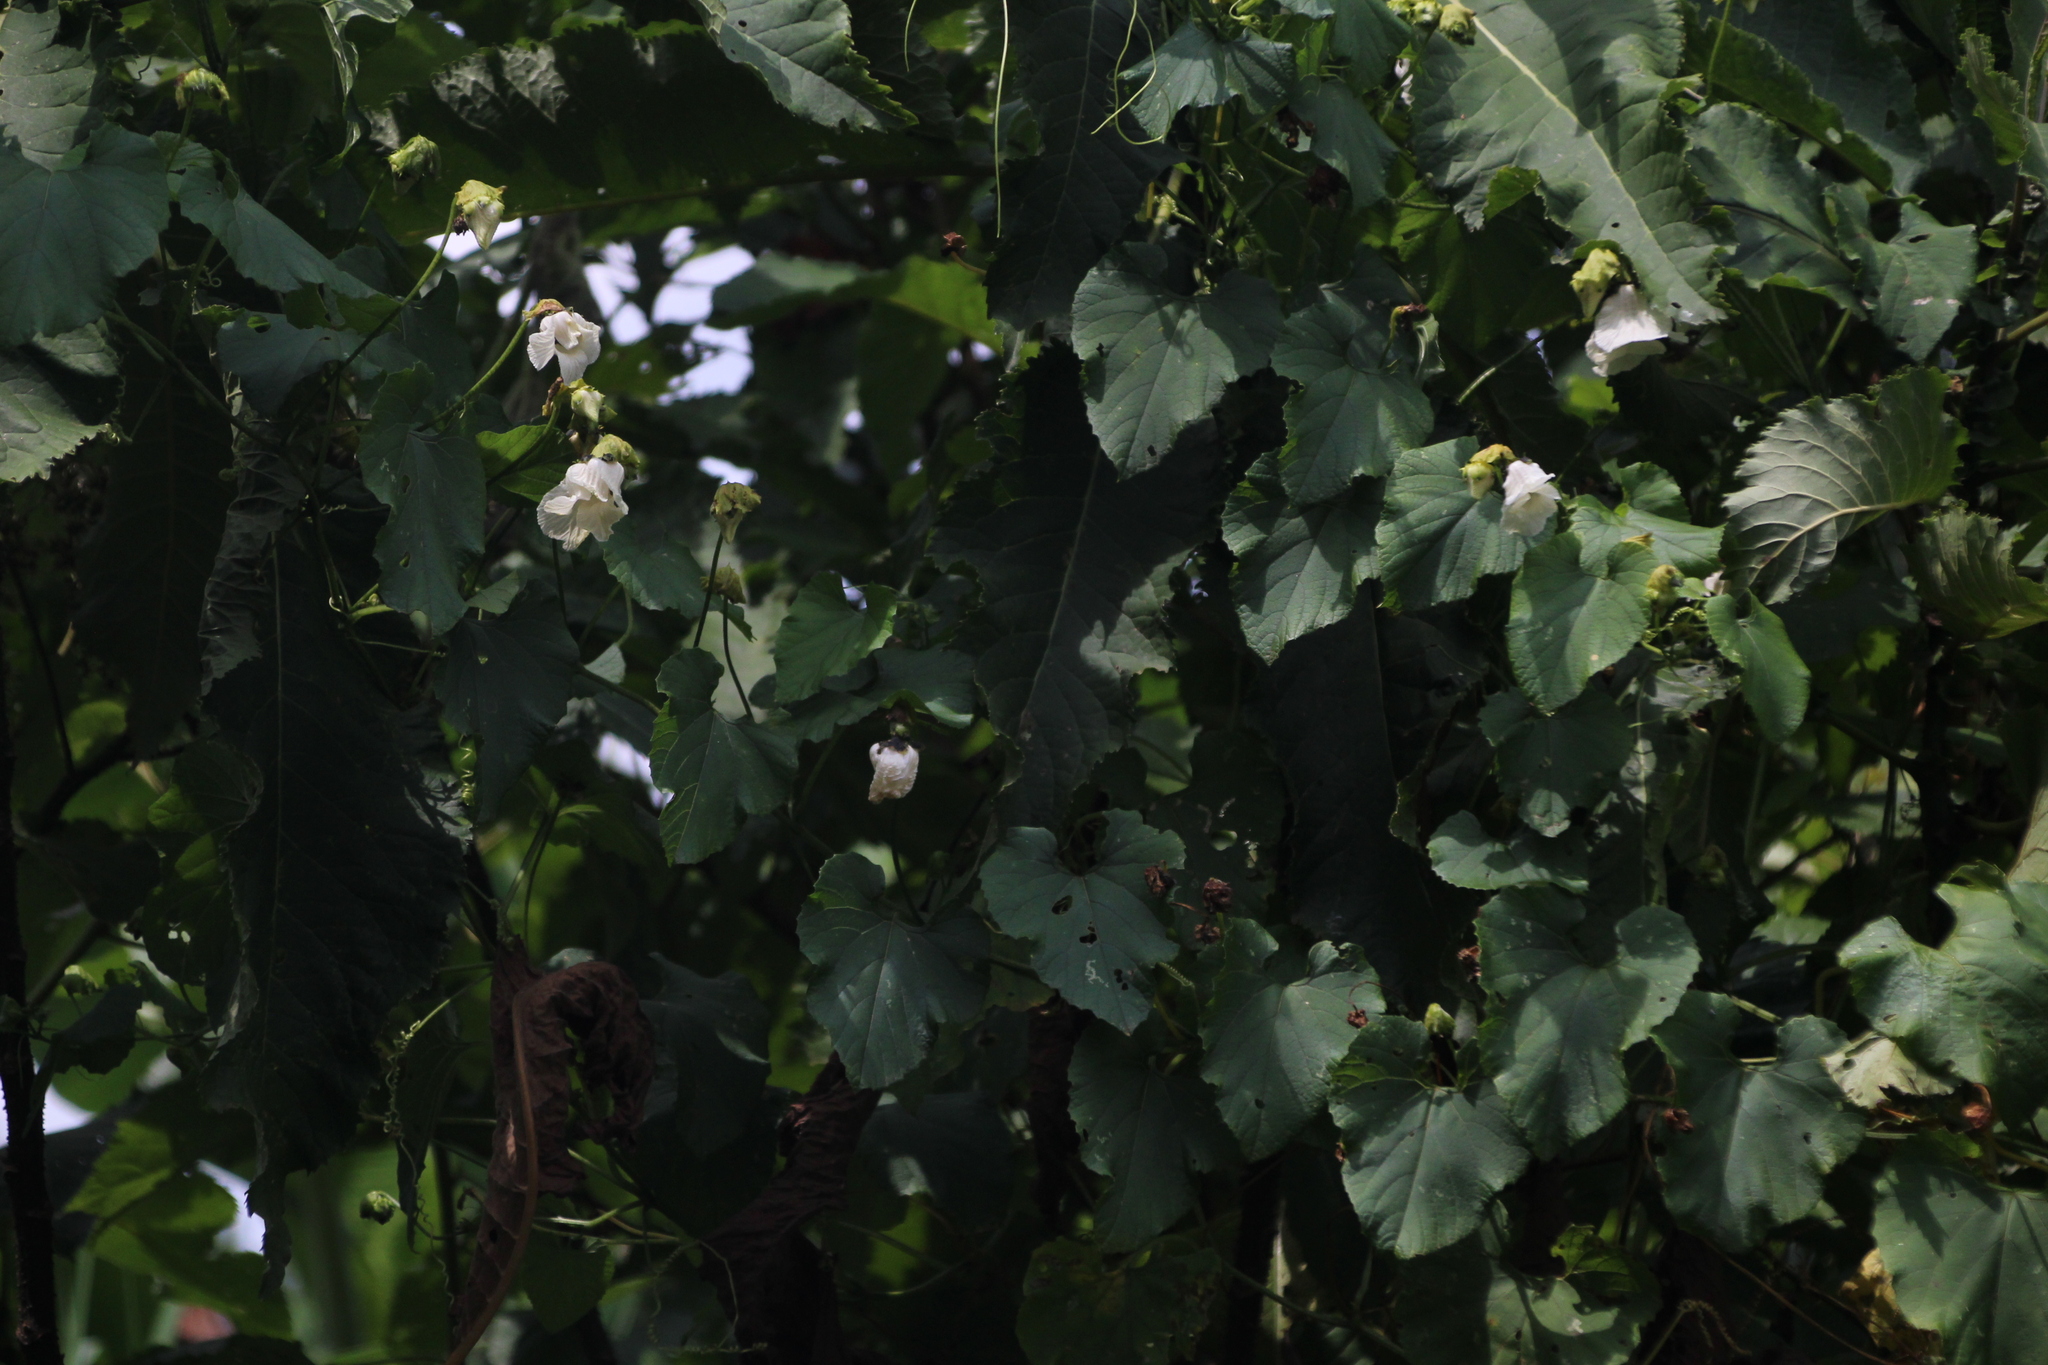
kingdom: Plantae
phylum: Tracheophyta
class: Magnoliopsida
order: Cucurbitales
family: Cucurbitaceae
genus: Momordica
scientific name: Momordica foetida
